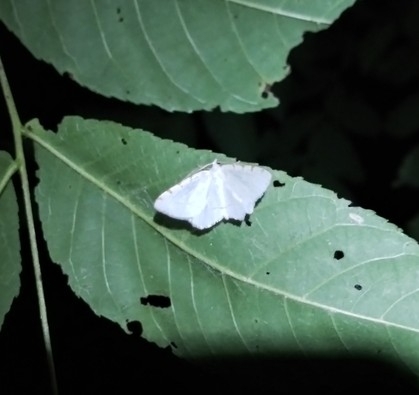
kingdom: Animalia
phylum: Arthropoda
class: Insecta
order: Lepidoptera
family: Geometridae
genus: Macaria
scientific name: Macaria pustularia
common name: Lesser maple spanworm moth
